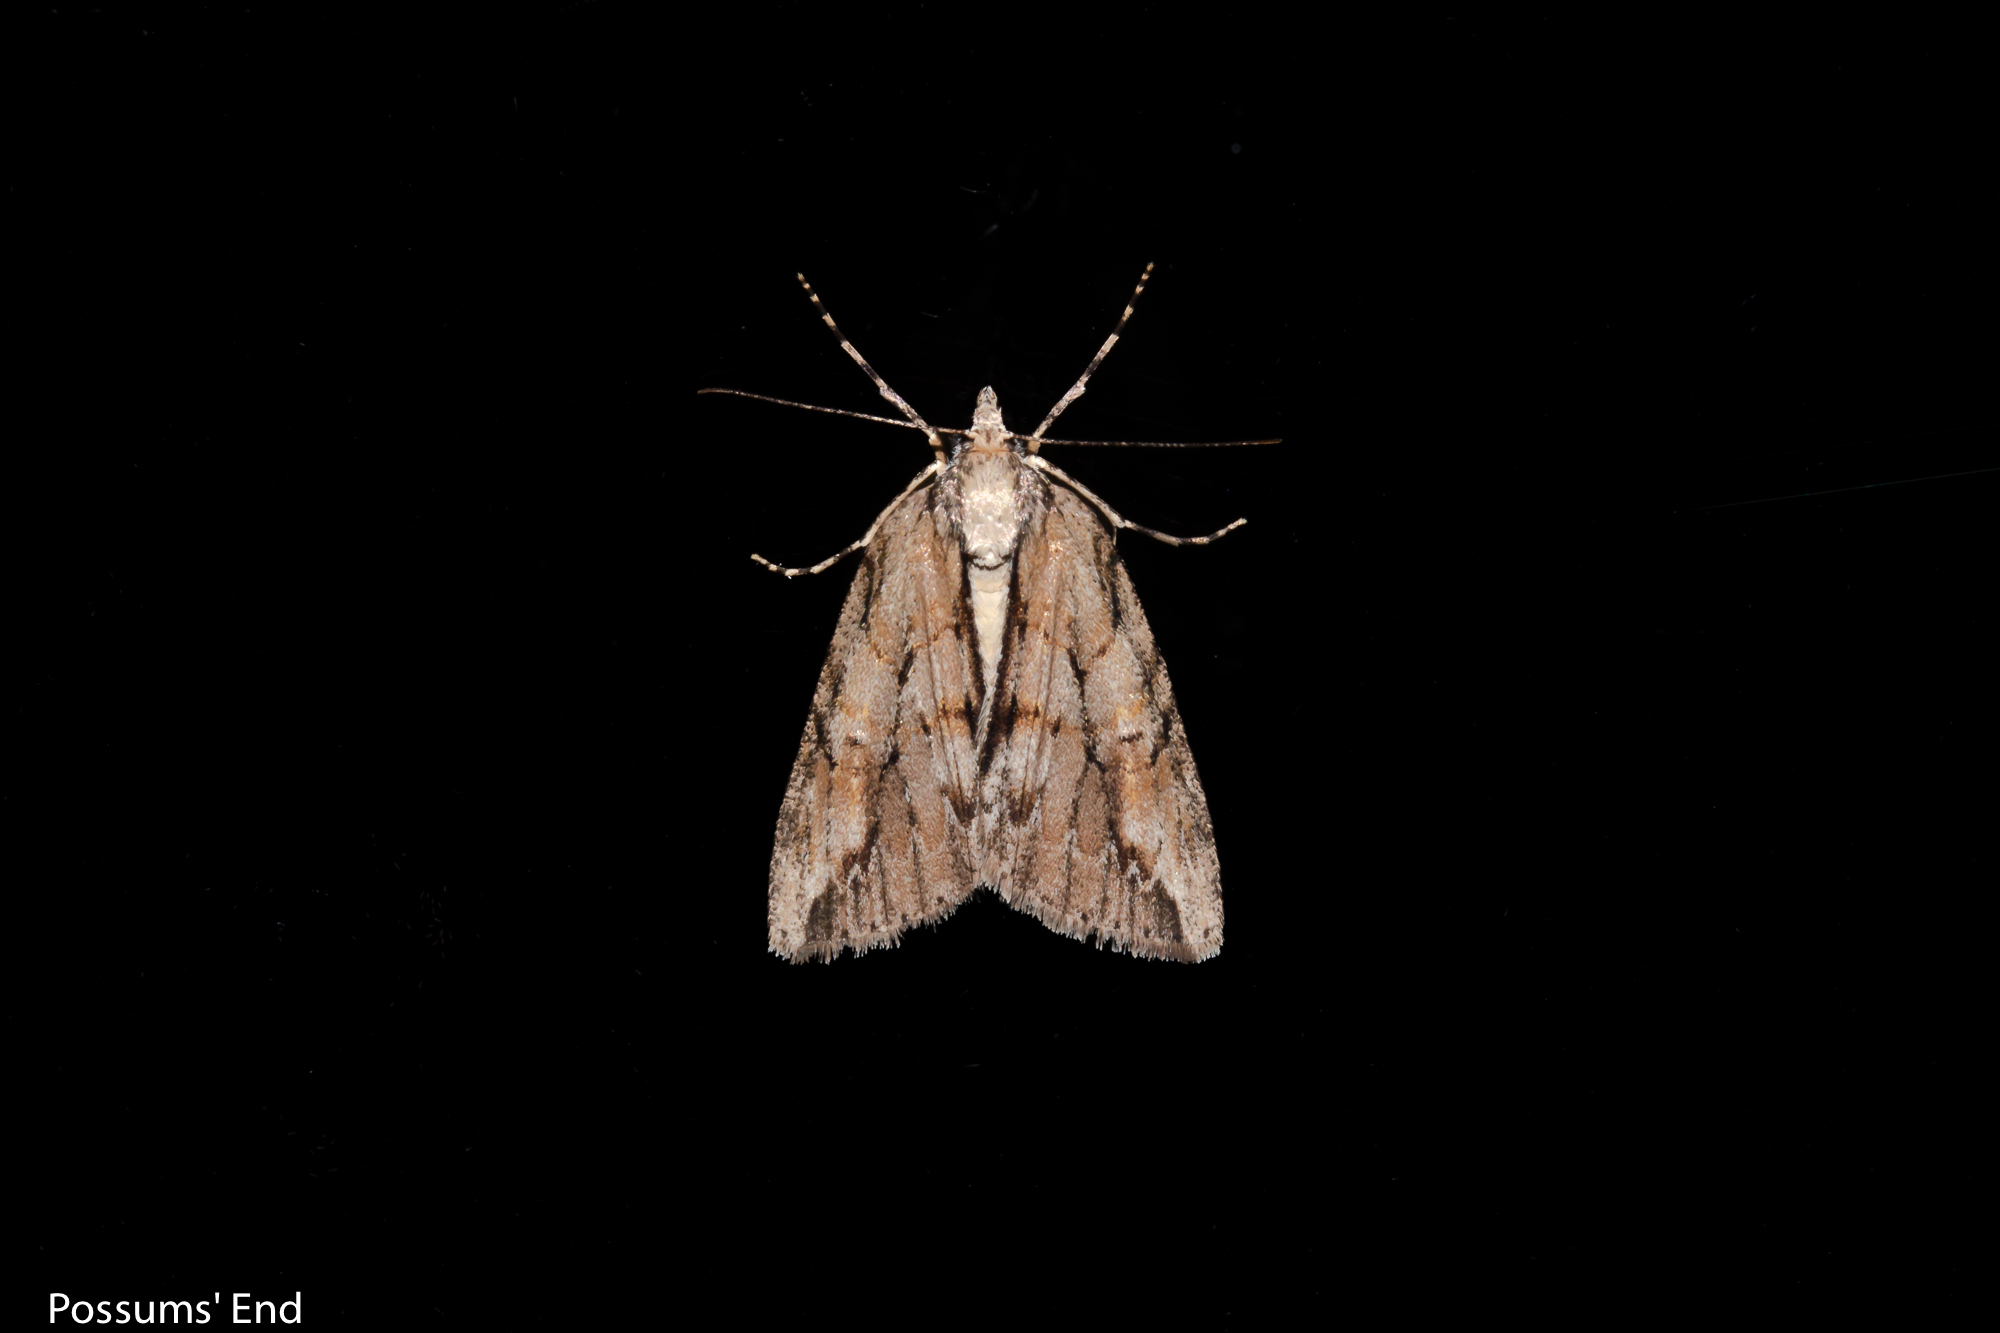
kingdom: Animalia
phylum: Arthropoda
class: Insecta
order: Lepidoptera
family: Geometridae
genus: Pseudocoremia
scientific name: Pseudocoremia lupinata
